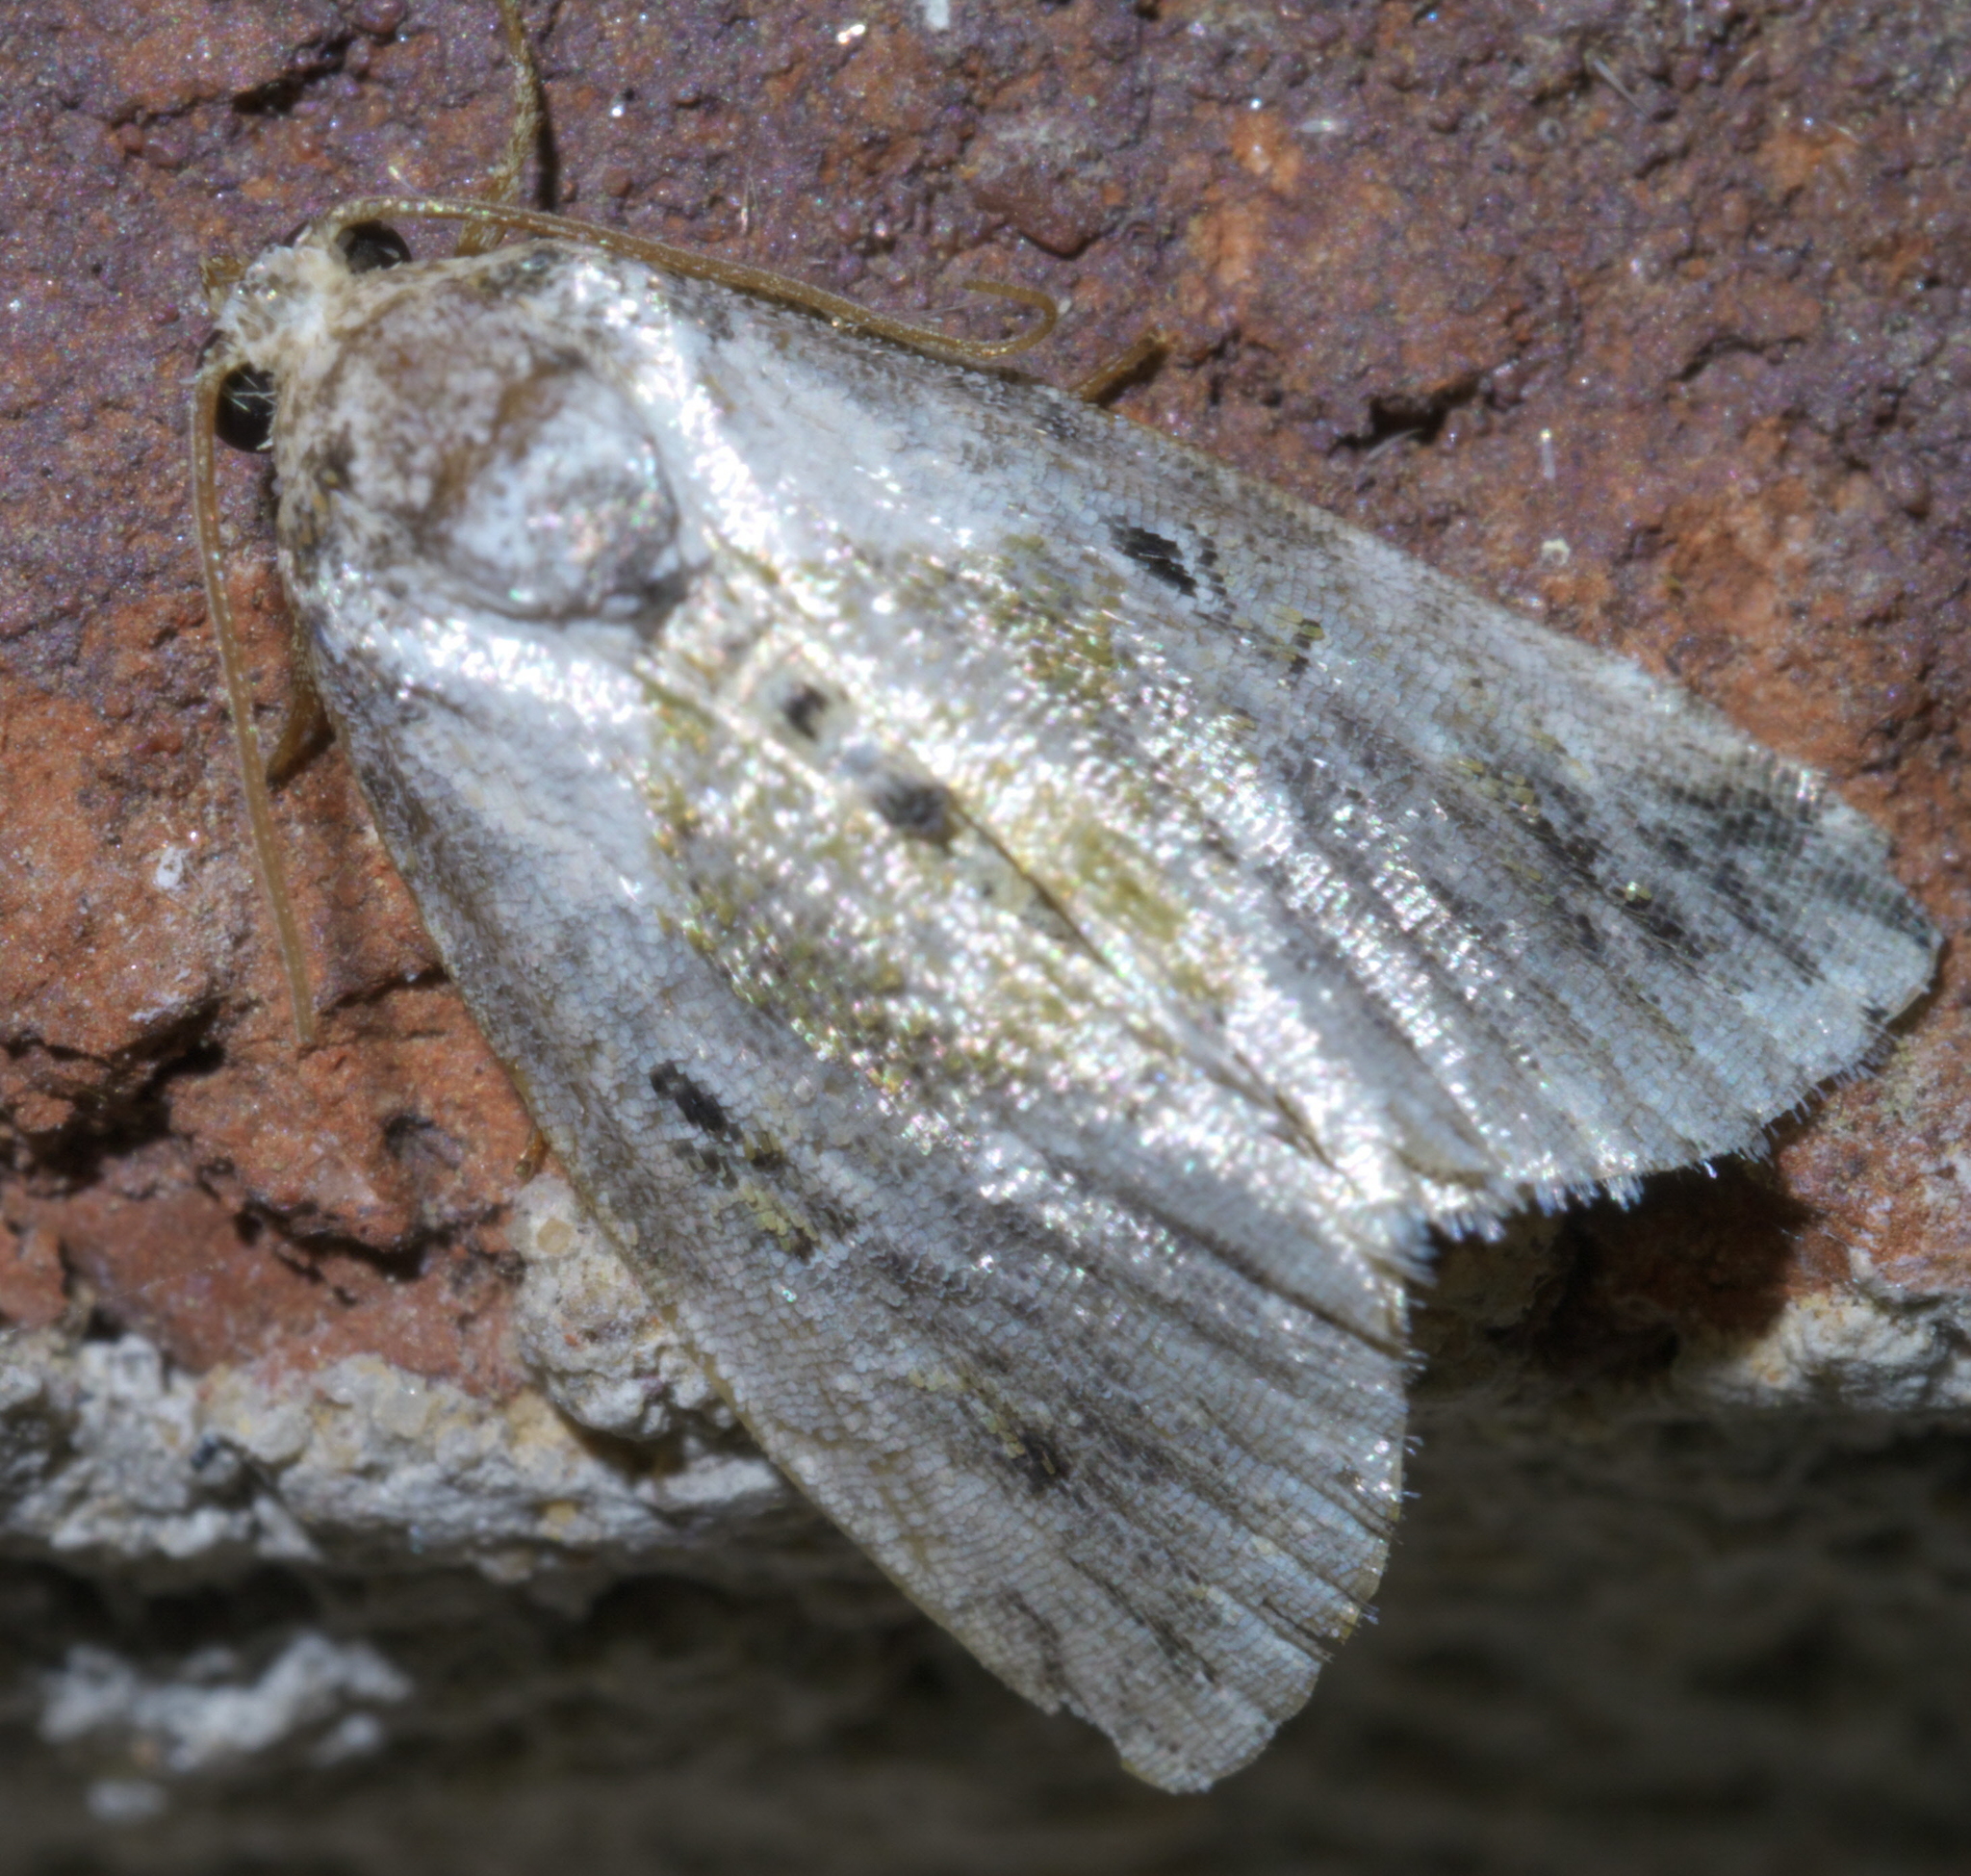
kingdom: Animalia
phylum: Arthropoda
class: Insecta
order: Lepidoptera
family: Noctuidae
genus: Maliattha
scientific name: Maliattha synochitis
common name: Black-dotted glyph
